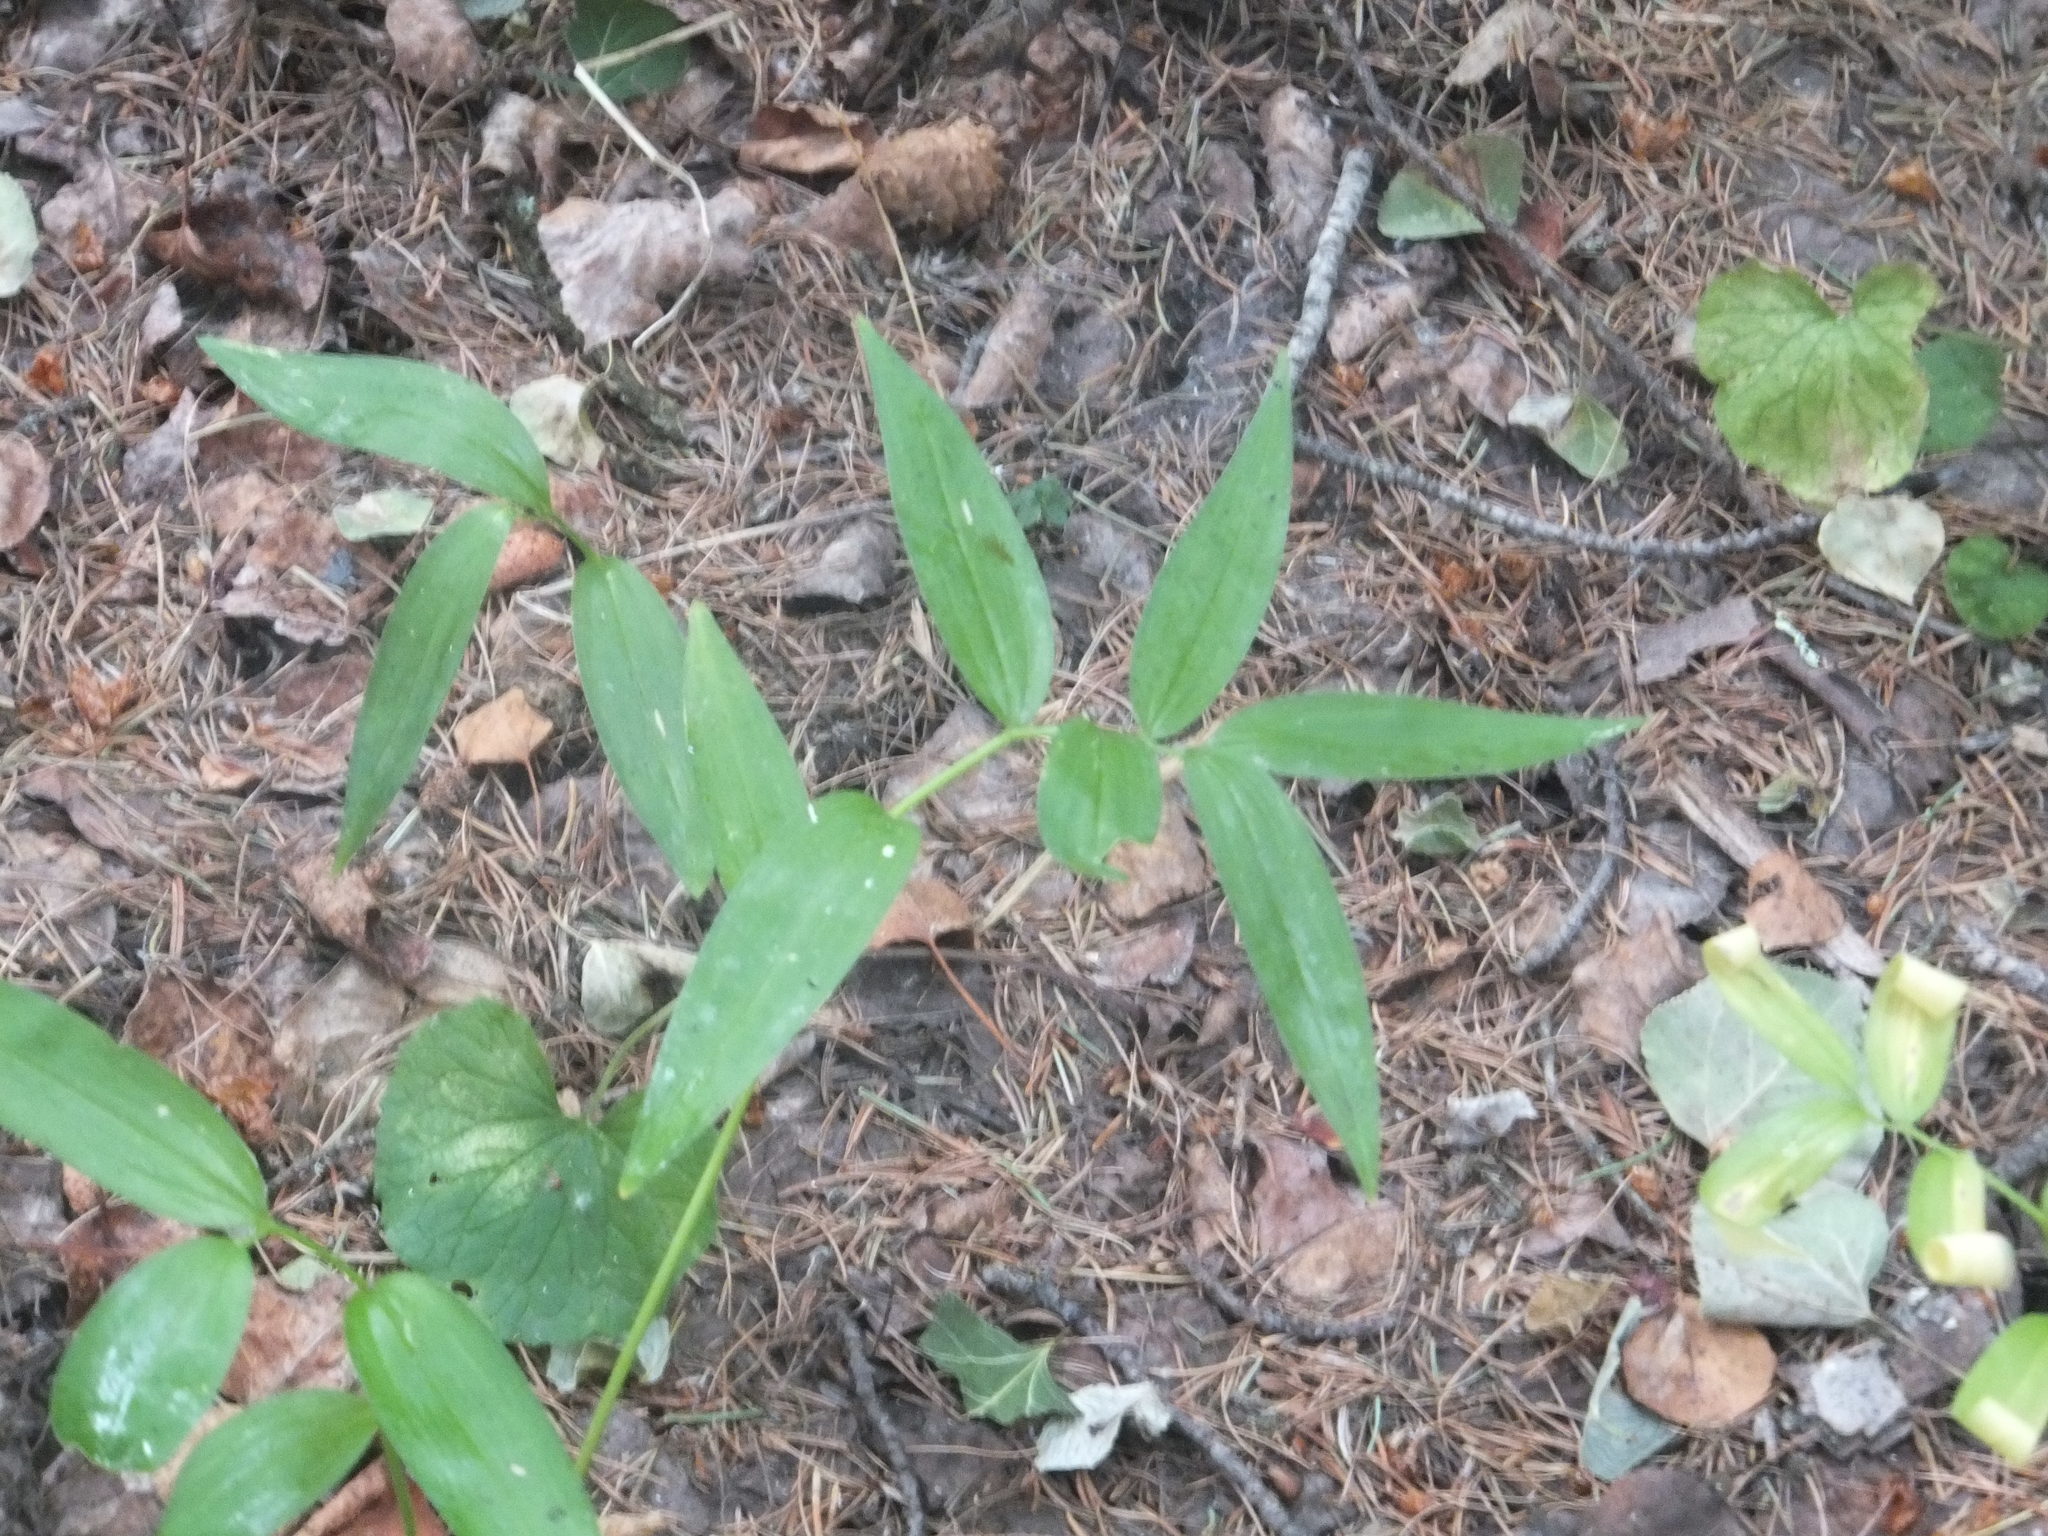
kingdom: Plantae
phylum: Tracheophyta
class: Liliopsida
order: Asparagales
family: Asparagaceae
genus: Maianthemum
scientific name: Maianthemum stellatum
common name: Little false solomon's seal
